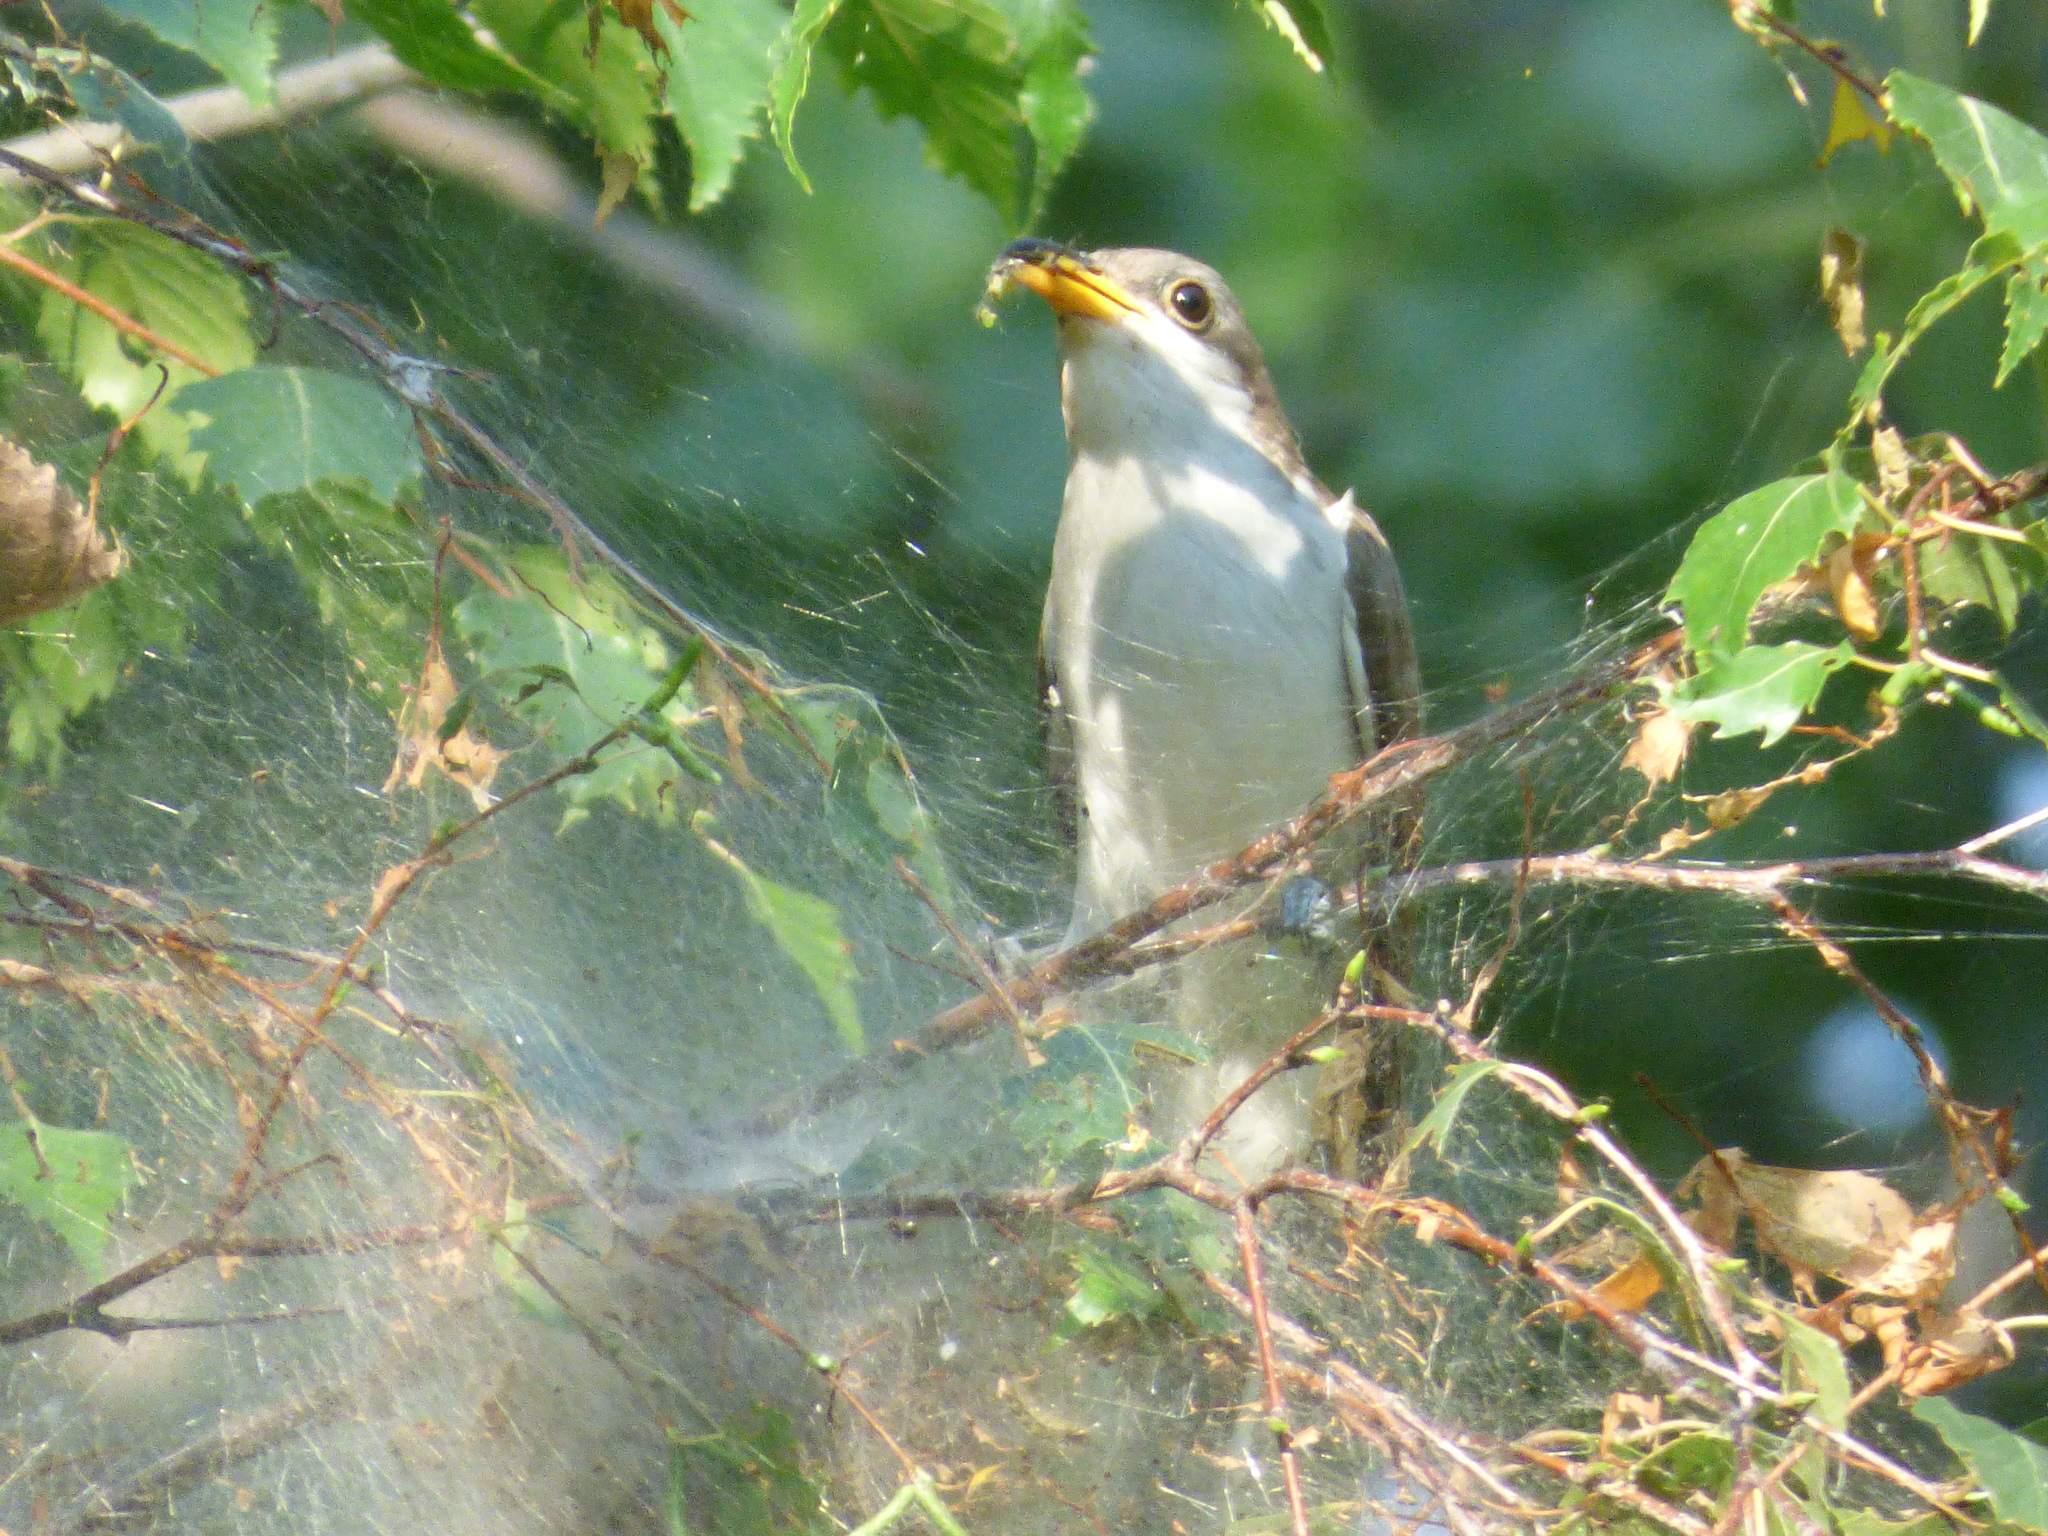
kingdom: Animalia
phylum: Chordata
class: Aves
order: Cuculiformes
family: Cuculidae
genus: Coccyzus
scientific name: Coccyzus americanus
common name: Yellow-billed cuckoo
